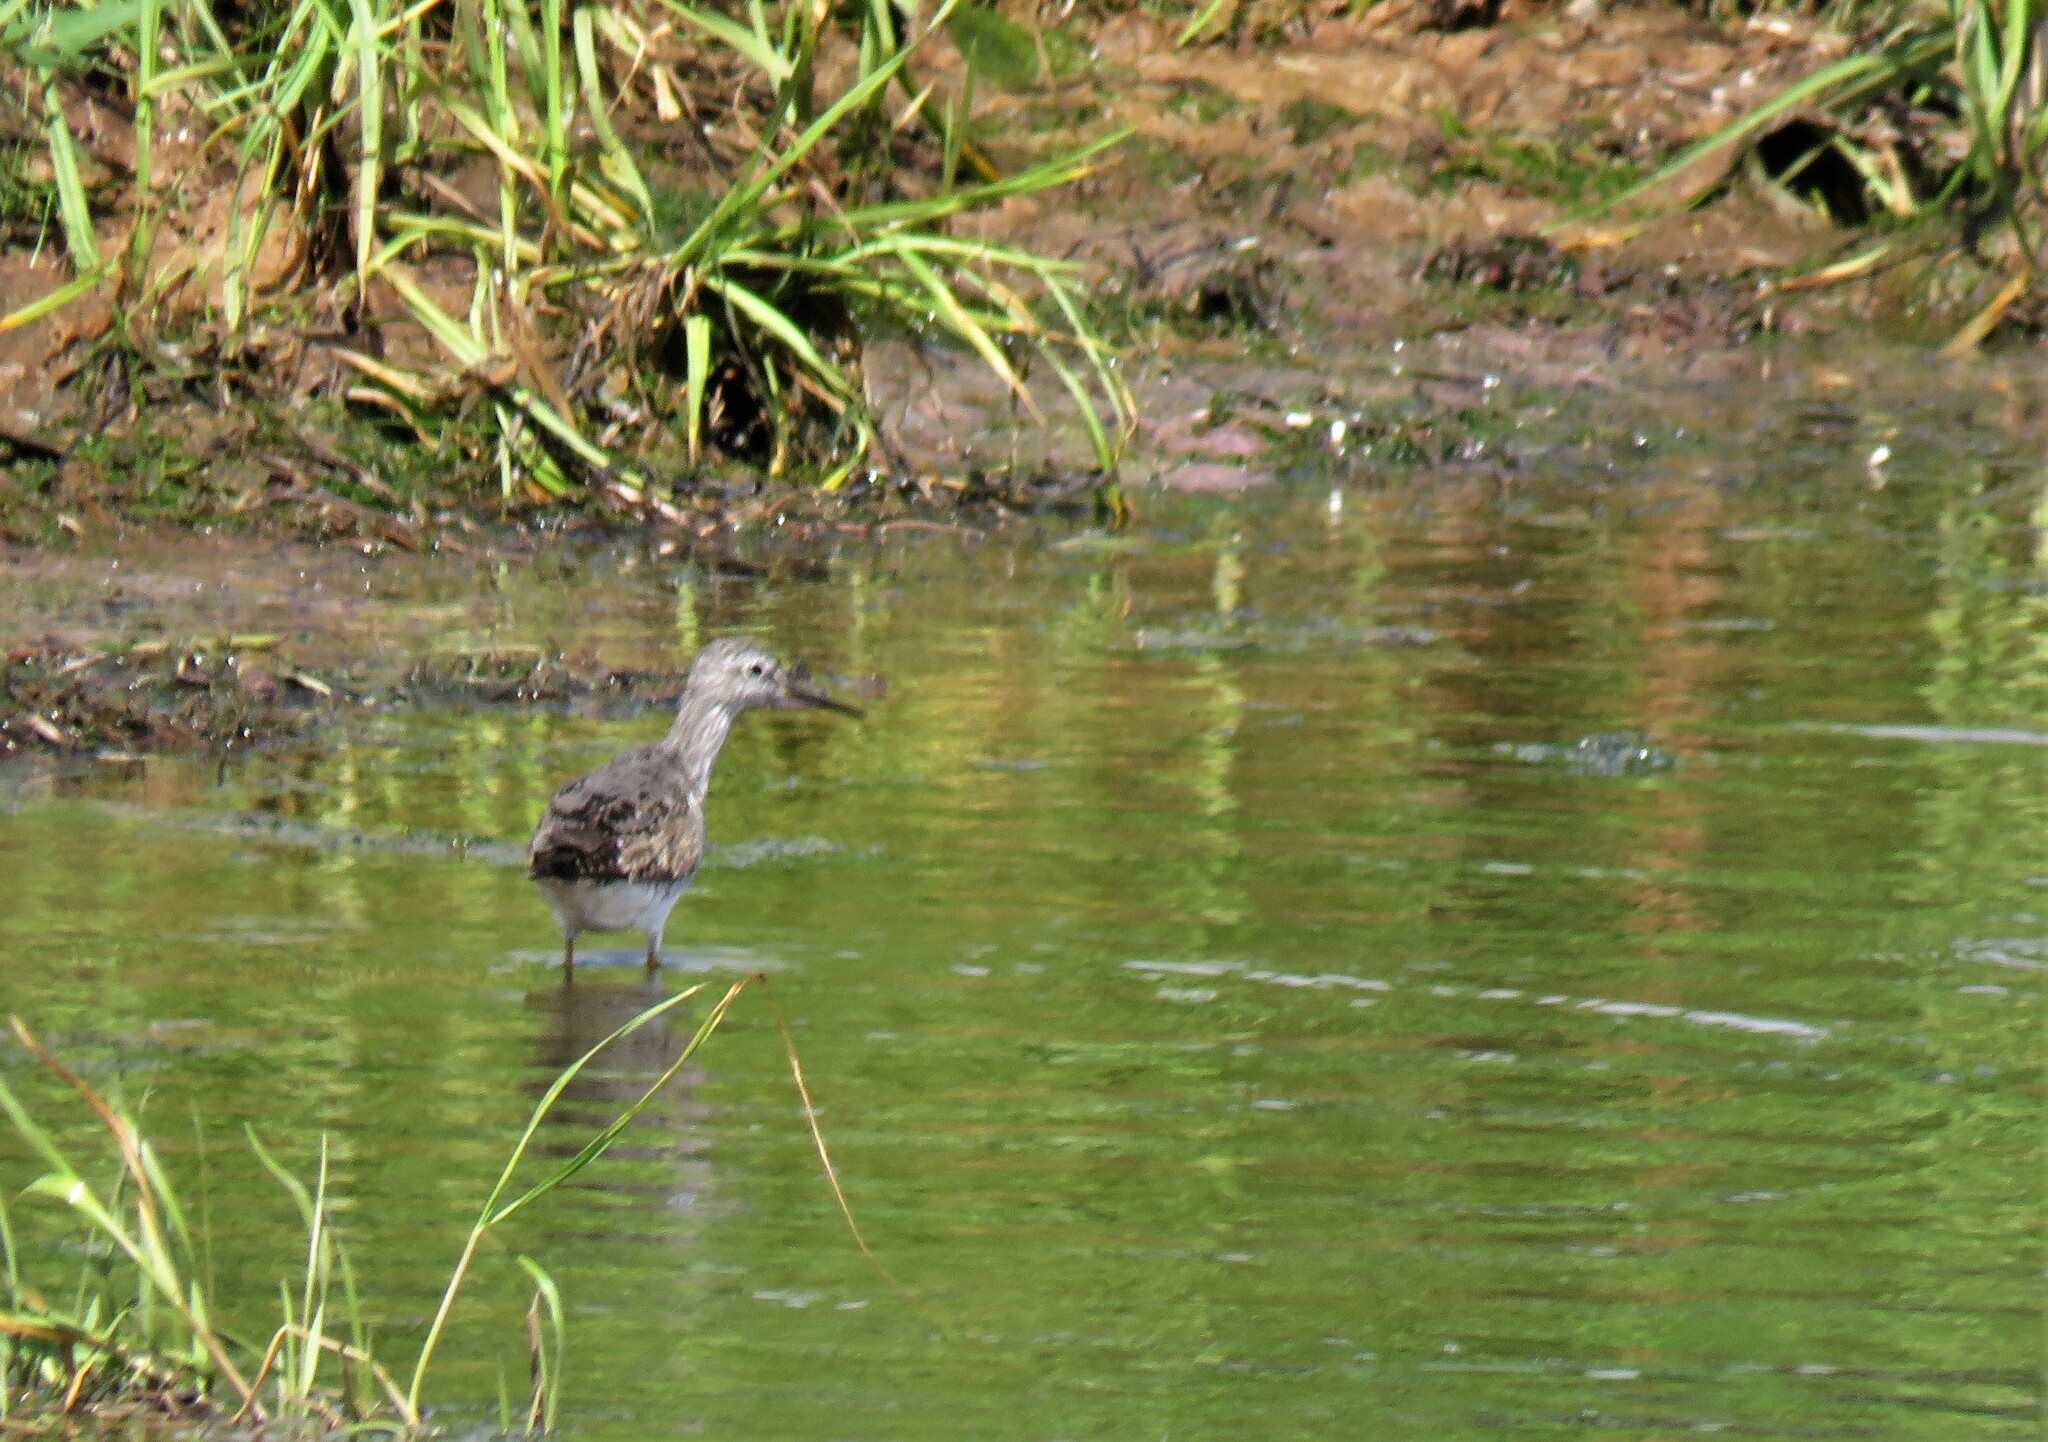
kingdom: Animalia
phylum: Chordata
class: Aves
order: Charadriiformes
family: Scolopacidae
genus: Tringa
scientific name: Tringa flavipes
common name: Lesser yellowlegs
